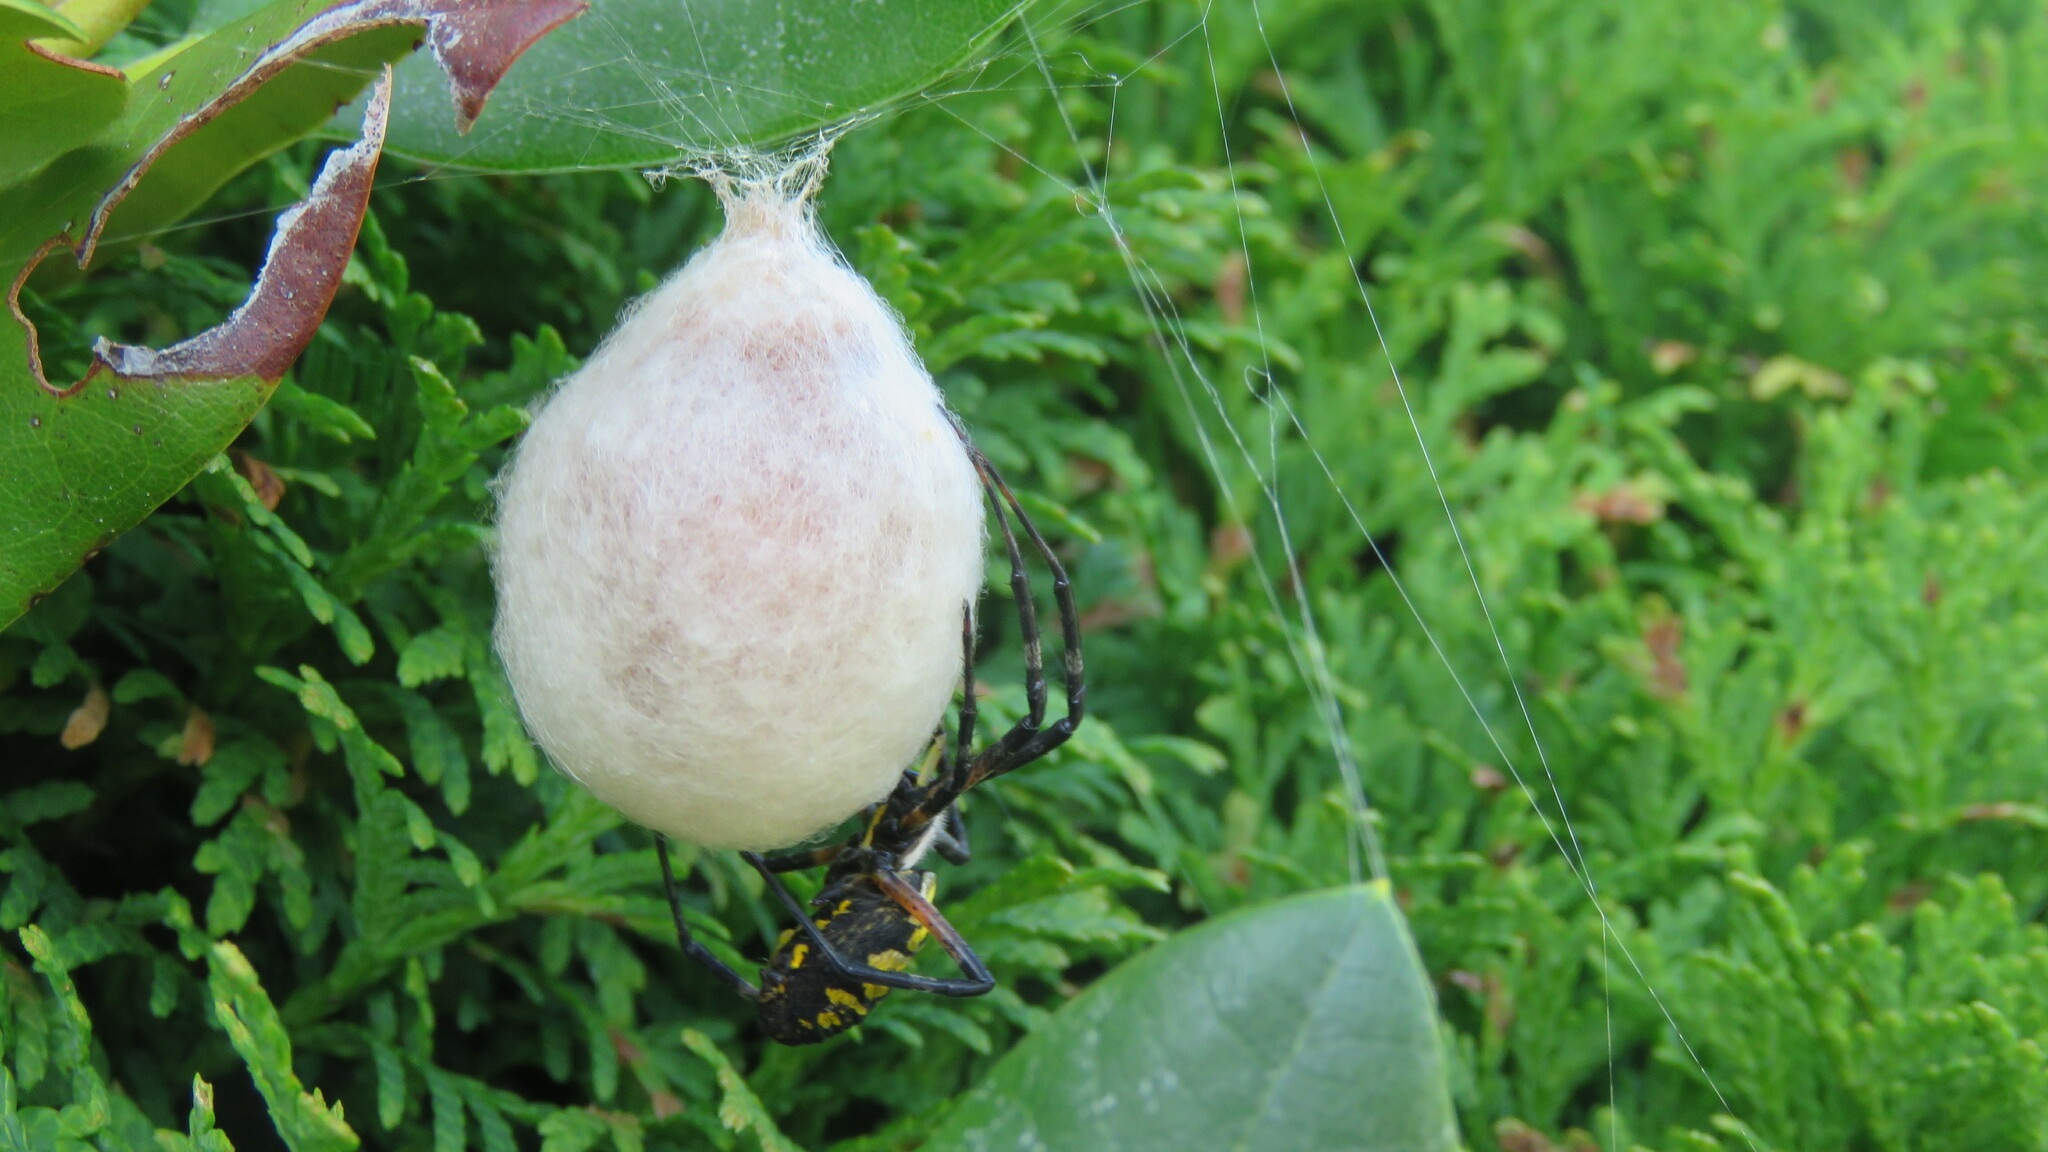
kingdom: Animalia
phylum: Arthropoda
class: Arachnida
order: Araneae
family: Araneidae
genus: Argiope
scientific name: Argiope aurantia
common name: Orb weavers
